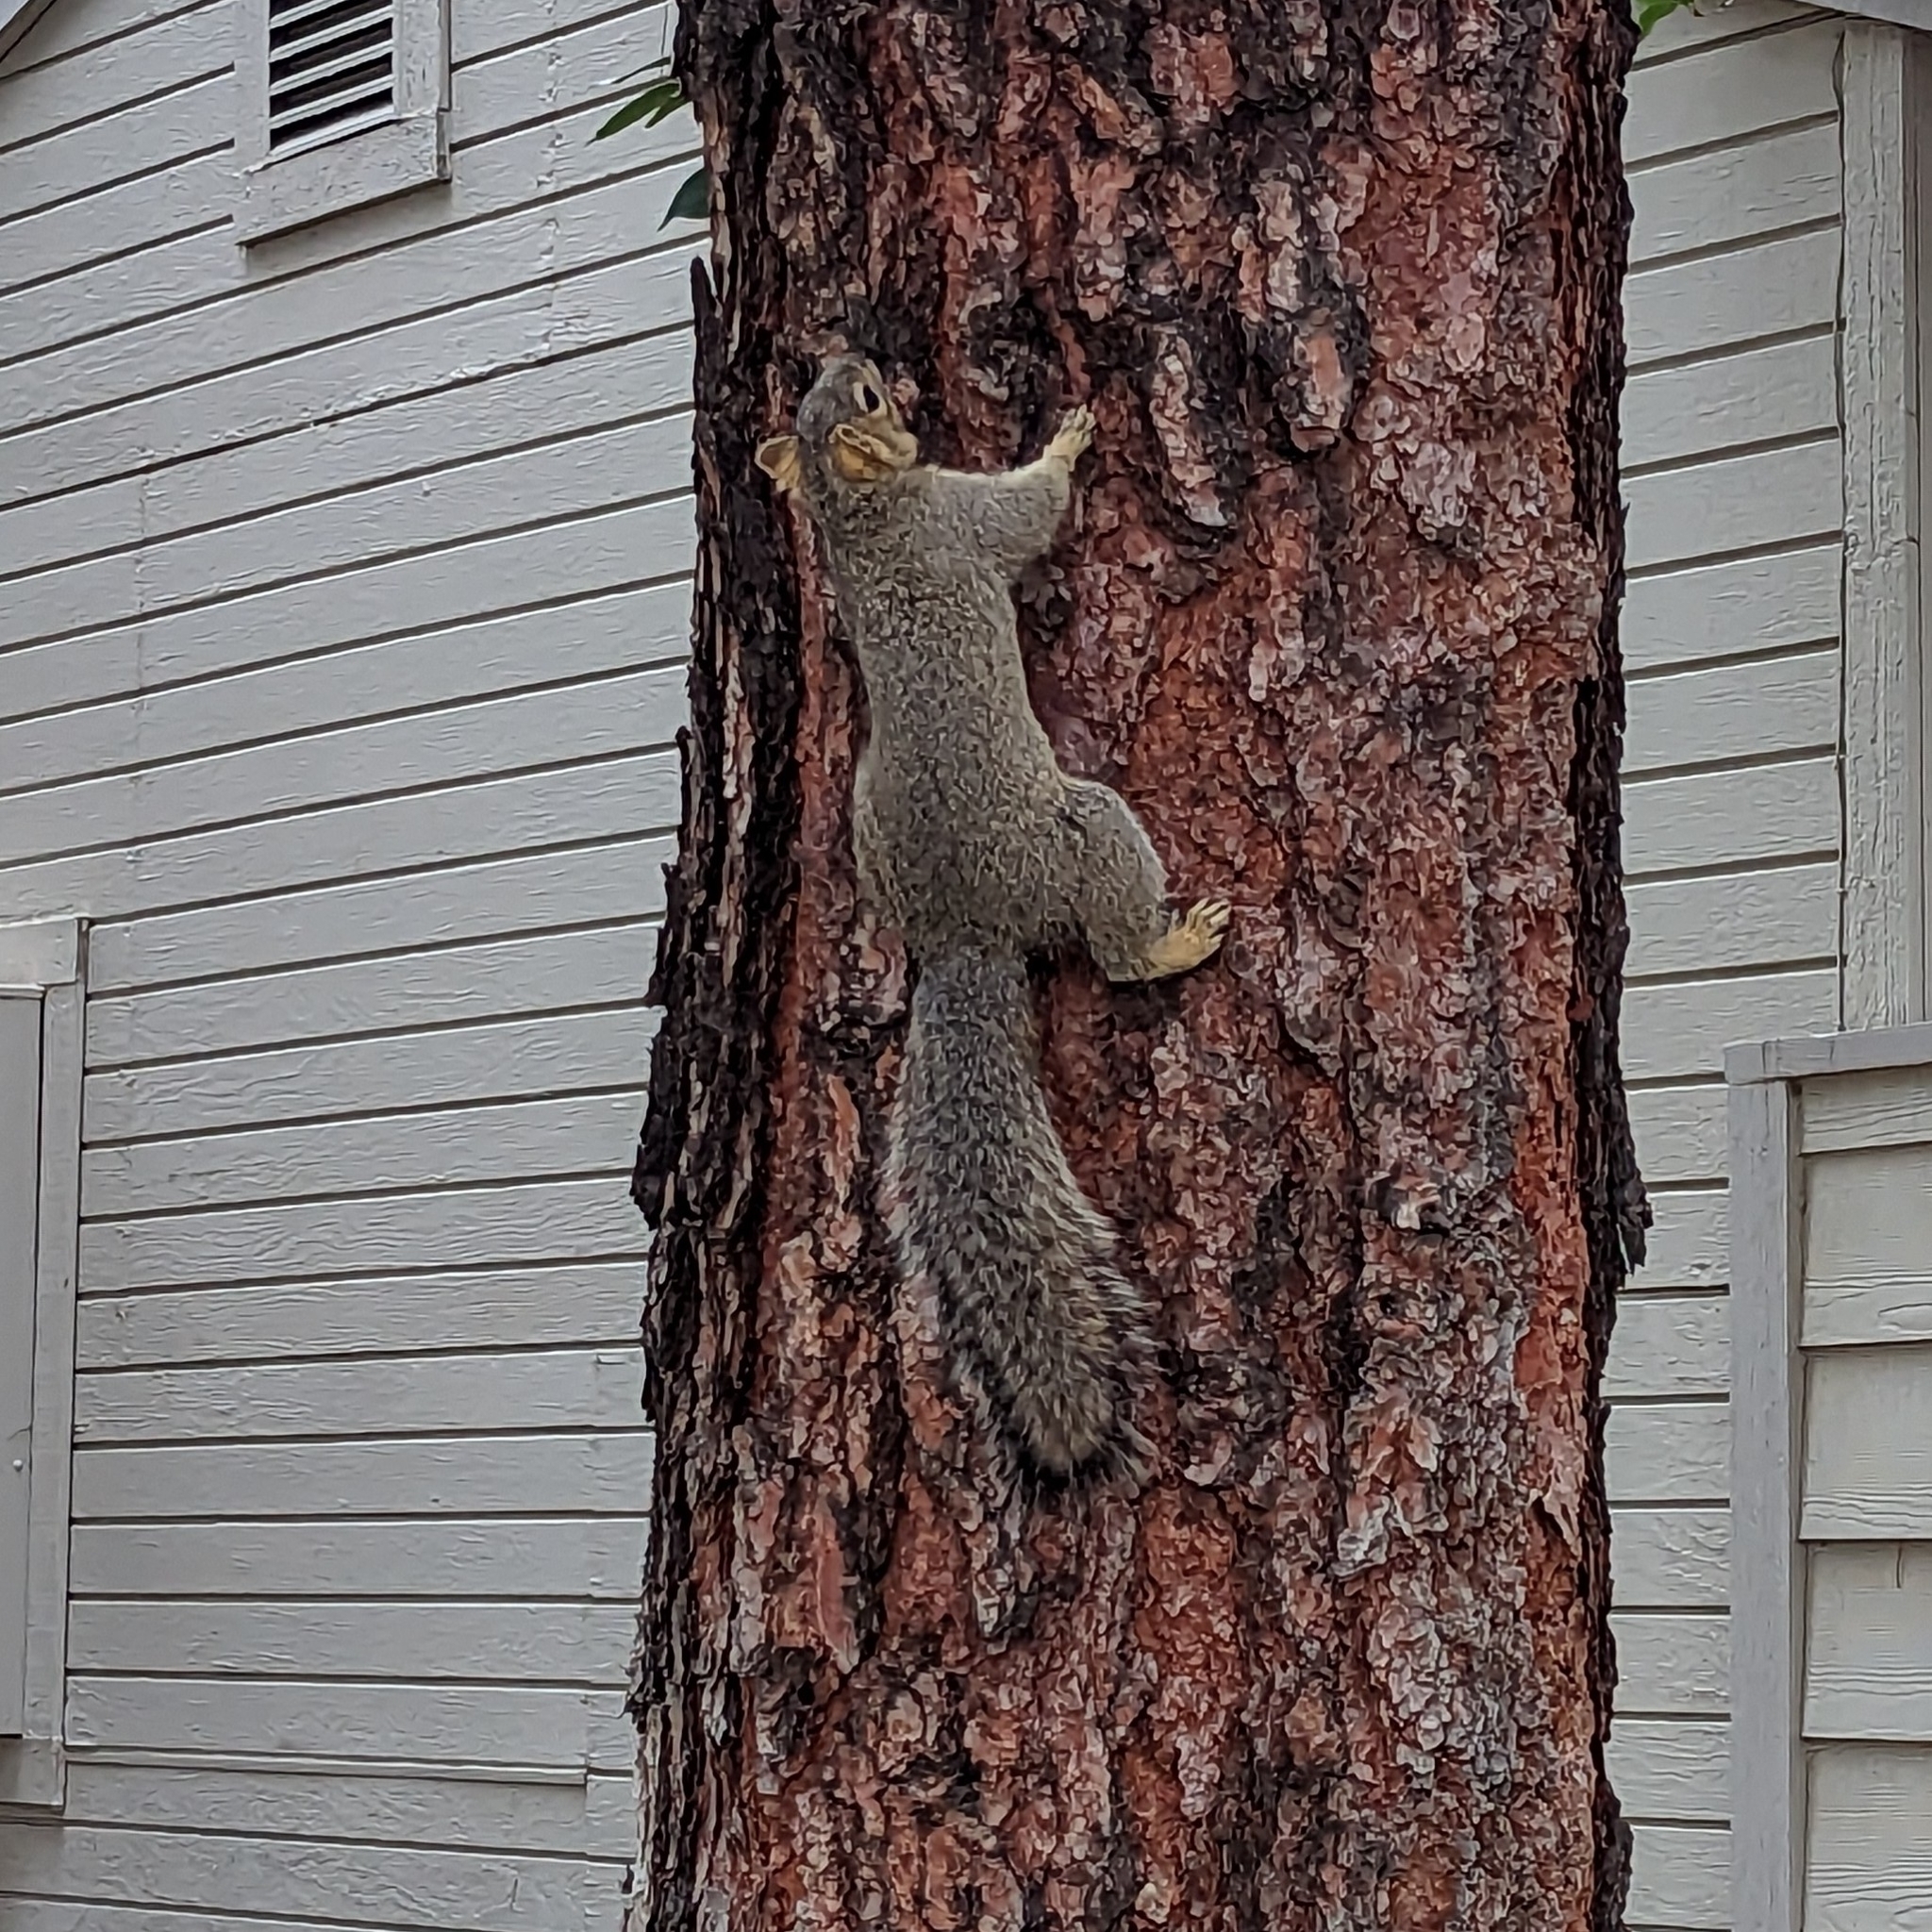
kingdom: Animalia
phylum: Chordata
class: Mammalia
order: Rodentia
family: Sciuridae
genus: Sciurus
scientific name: Sciurus niger
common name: Fox squirrel
